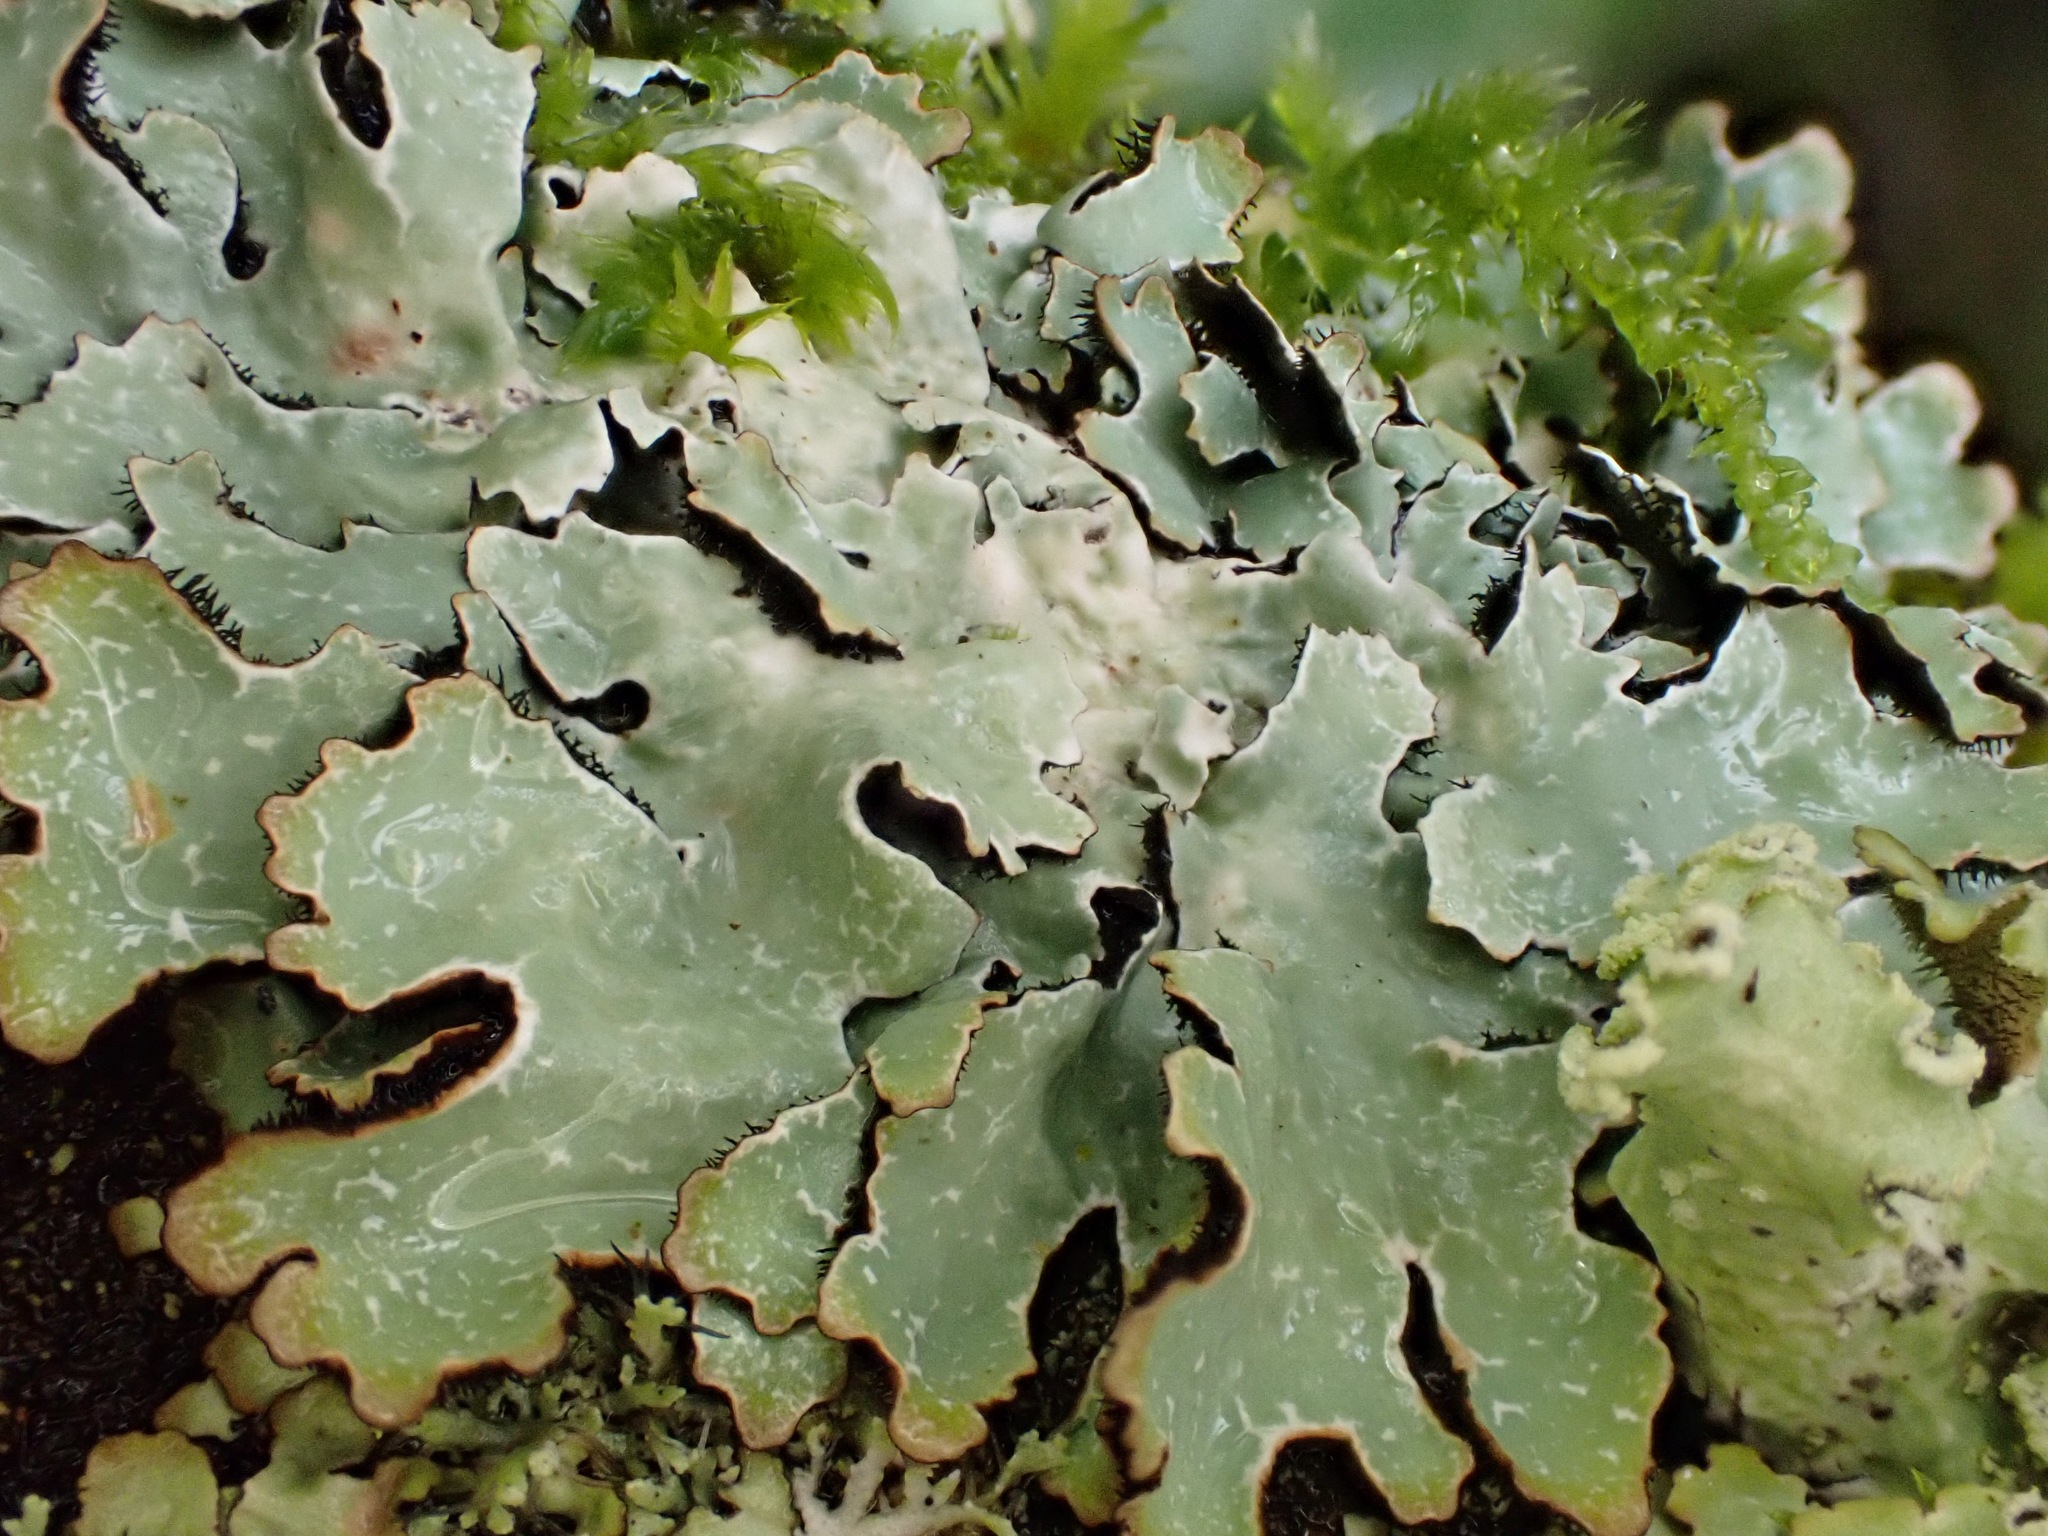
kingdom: Fungi
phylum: Ascomycota
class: Lecanoromycetes
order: Lecanorales
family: Parmeliaceae
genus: Parmelia
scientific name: Parmelia sulcata
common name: Netted shield lichen
